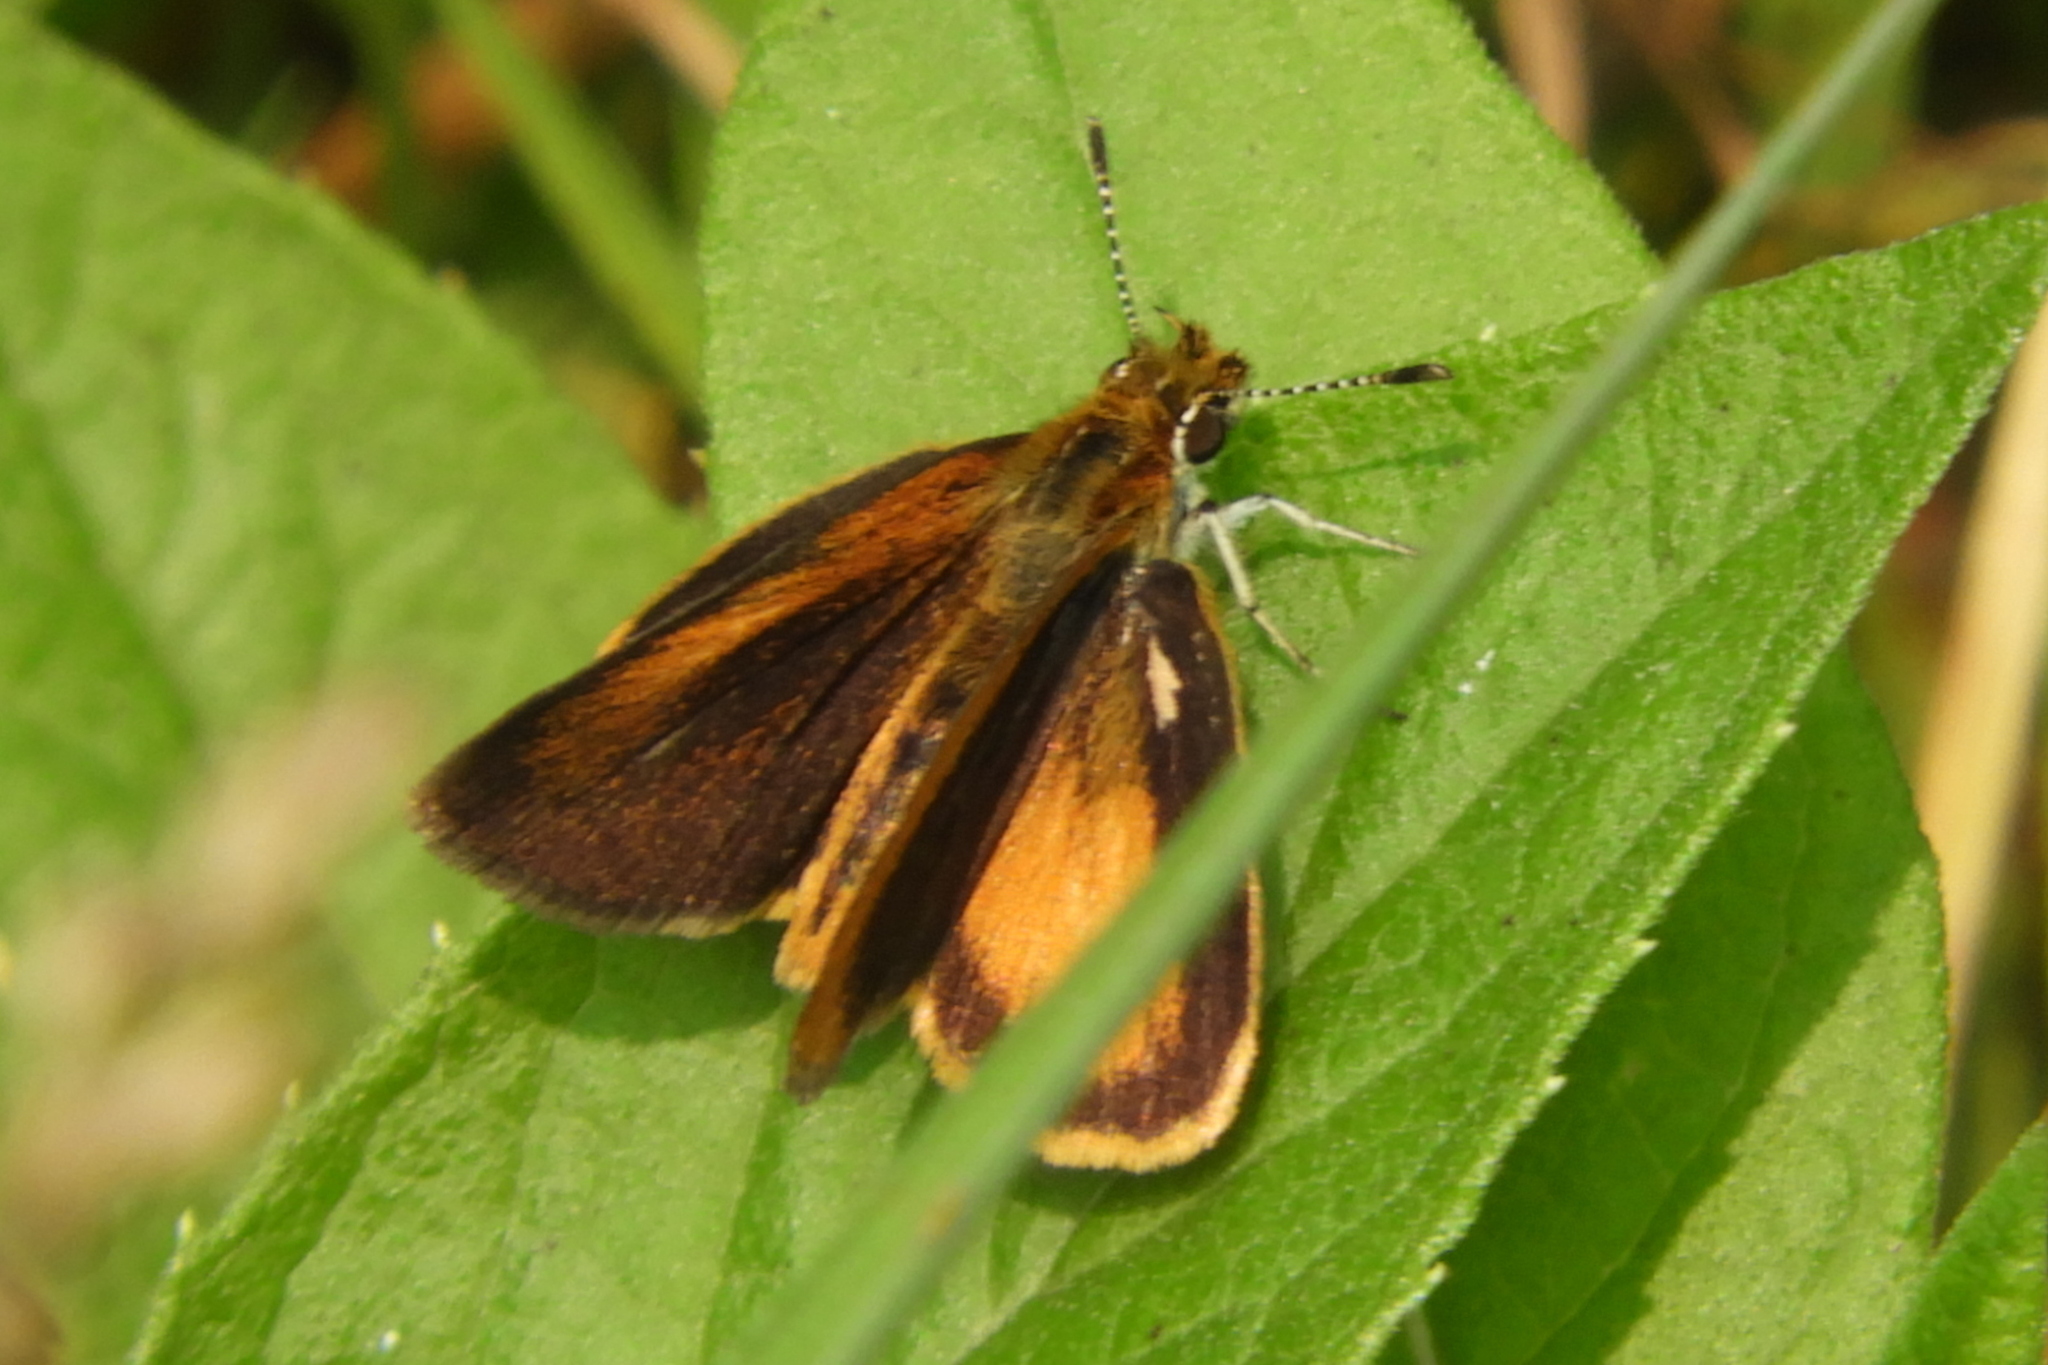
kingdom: Animalia
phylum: Arthropoda
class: Insecta
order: Lepidoptera
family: Hesperiidae
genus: Ancyloxypha
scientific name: Ancyloxypha numitor
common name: Least skipper
